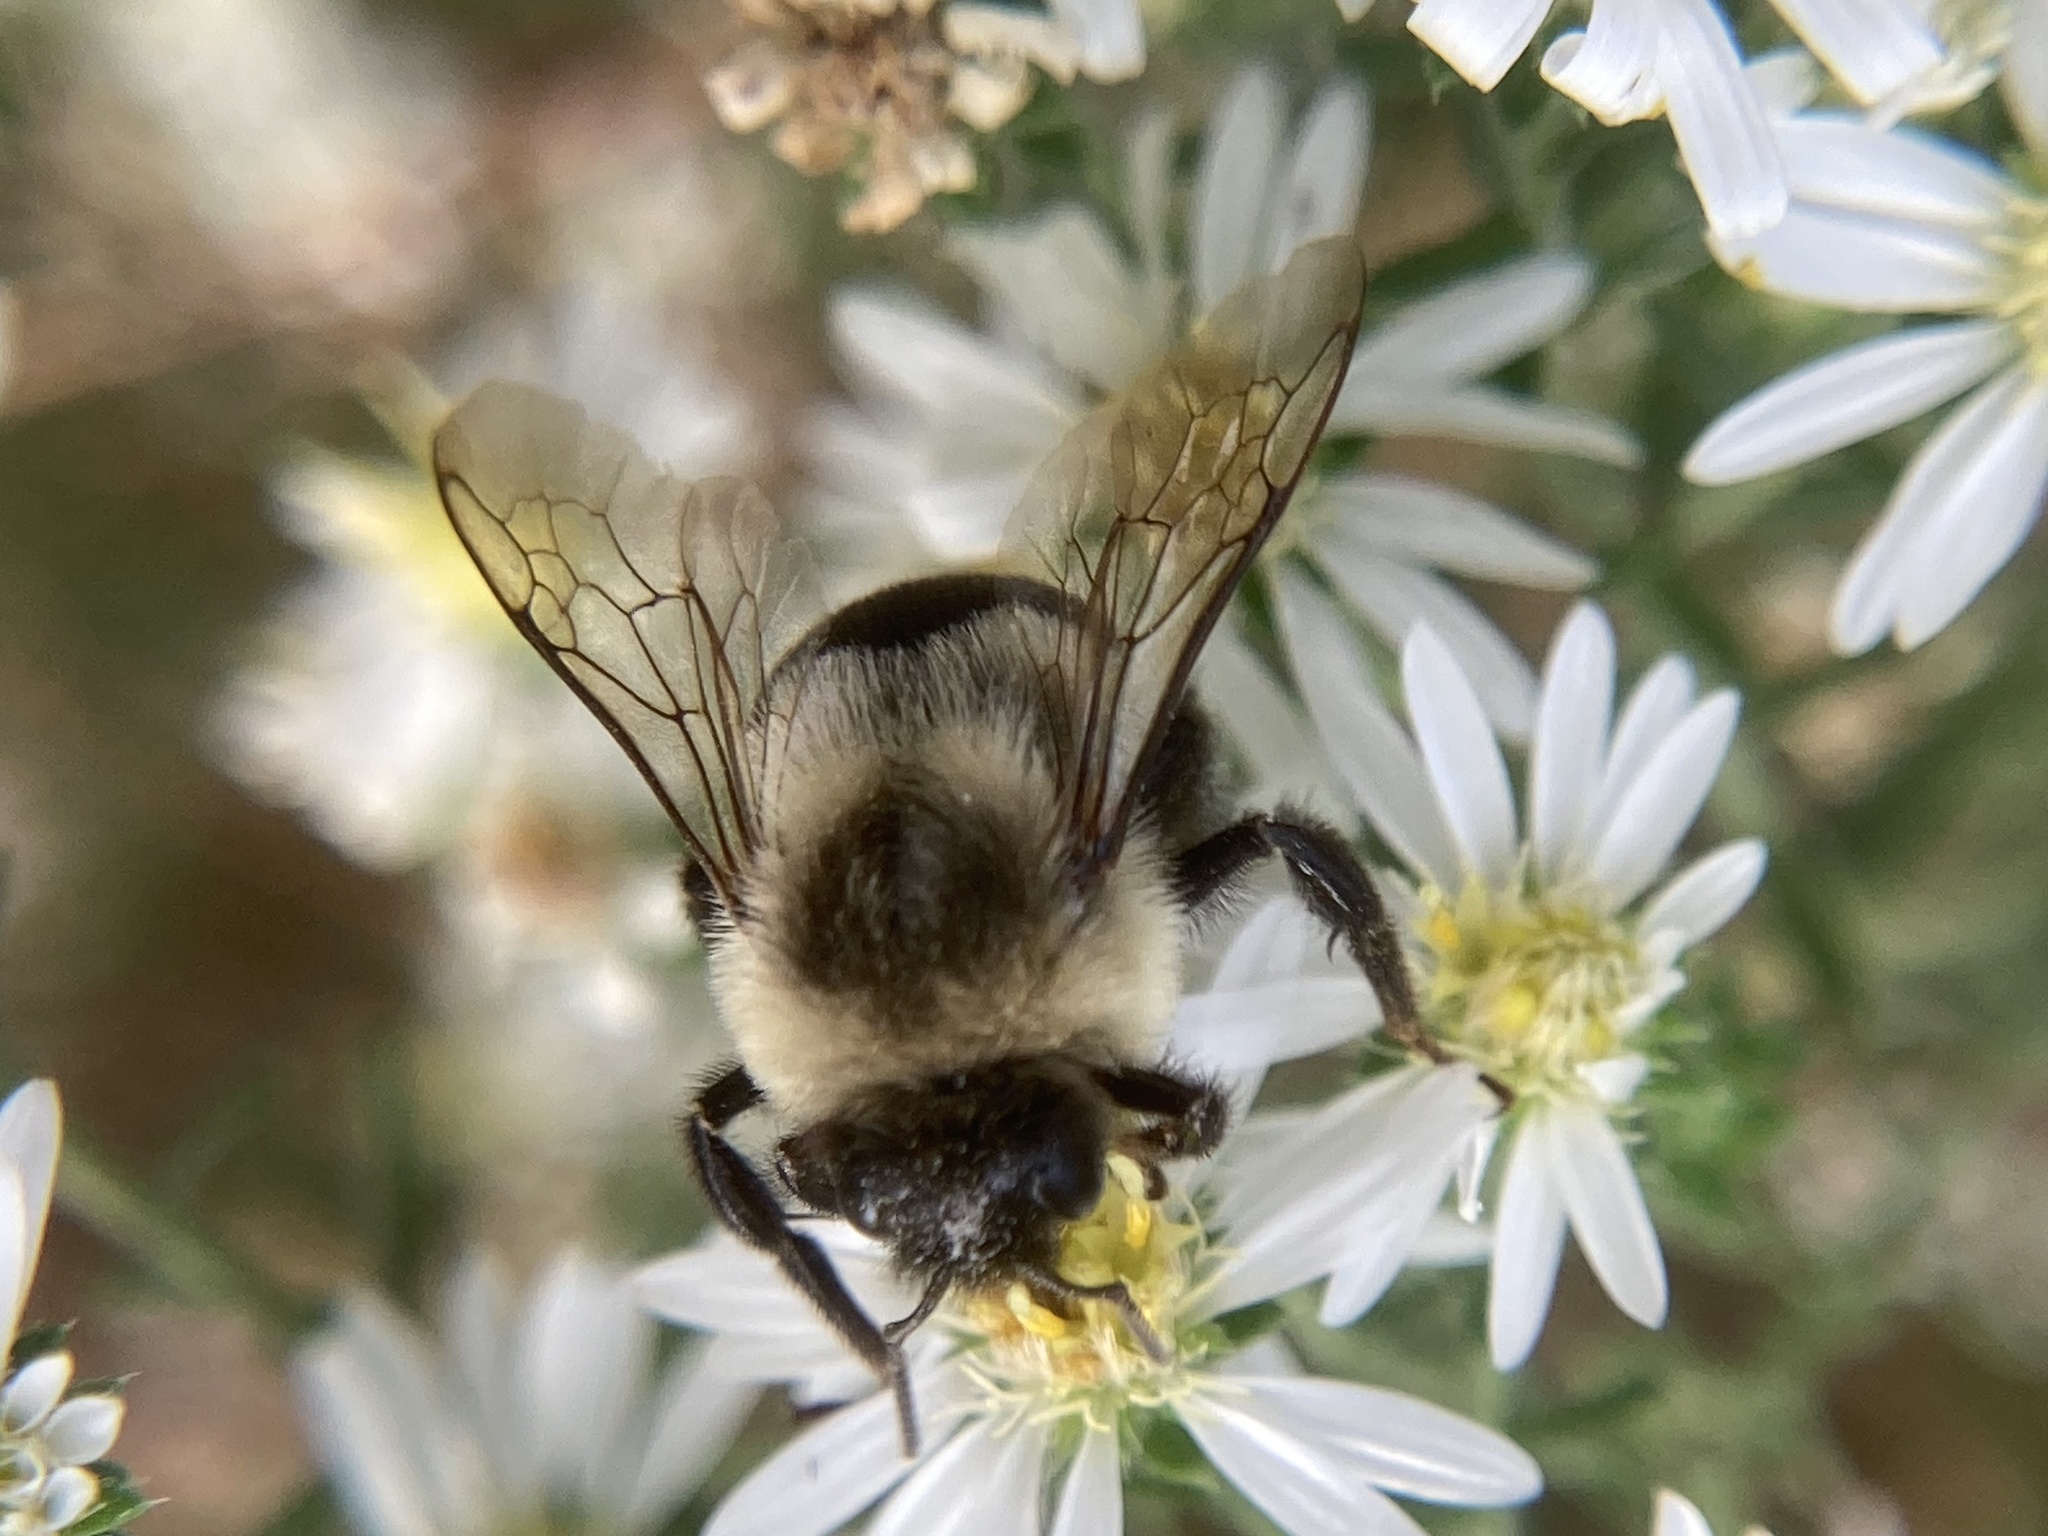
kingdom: Animalia
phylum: Arthropoda
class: Insecta
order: Hymenoptera
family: Apidae
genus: Bombus
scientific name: Bombus impatiens
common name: Common eastern bumble bee
